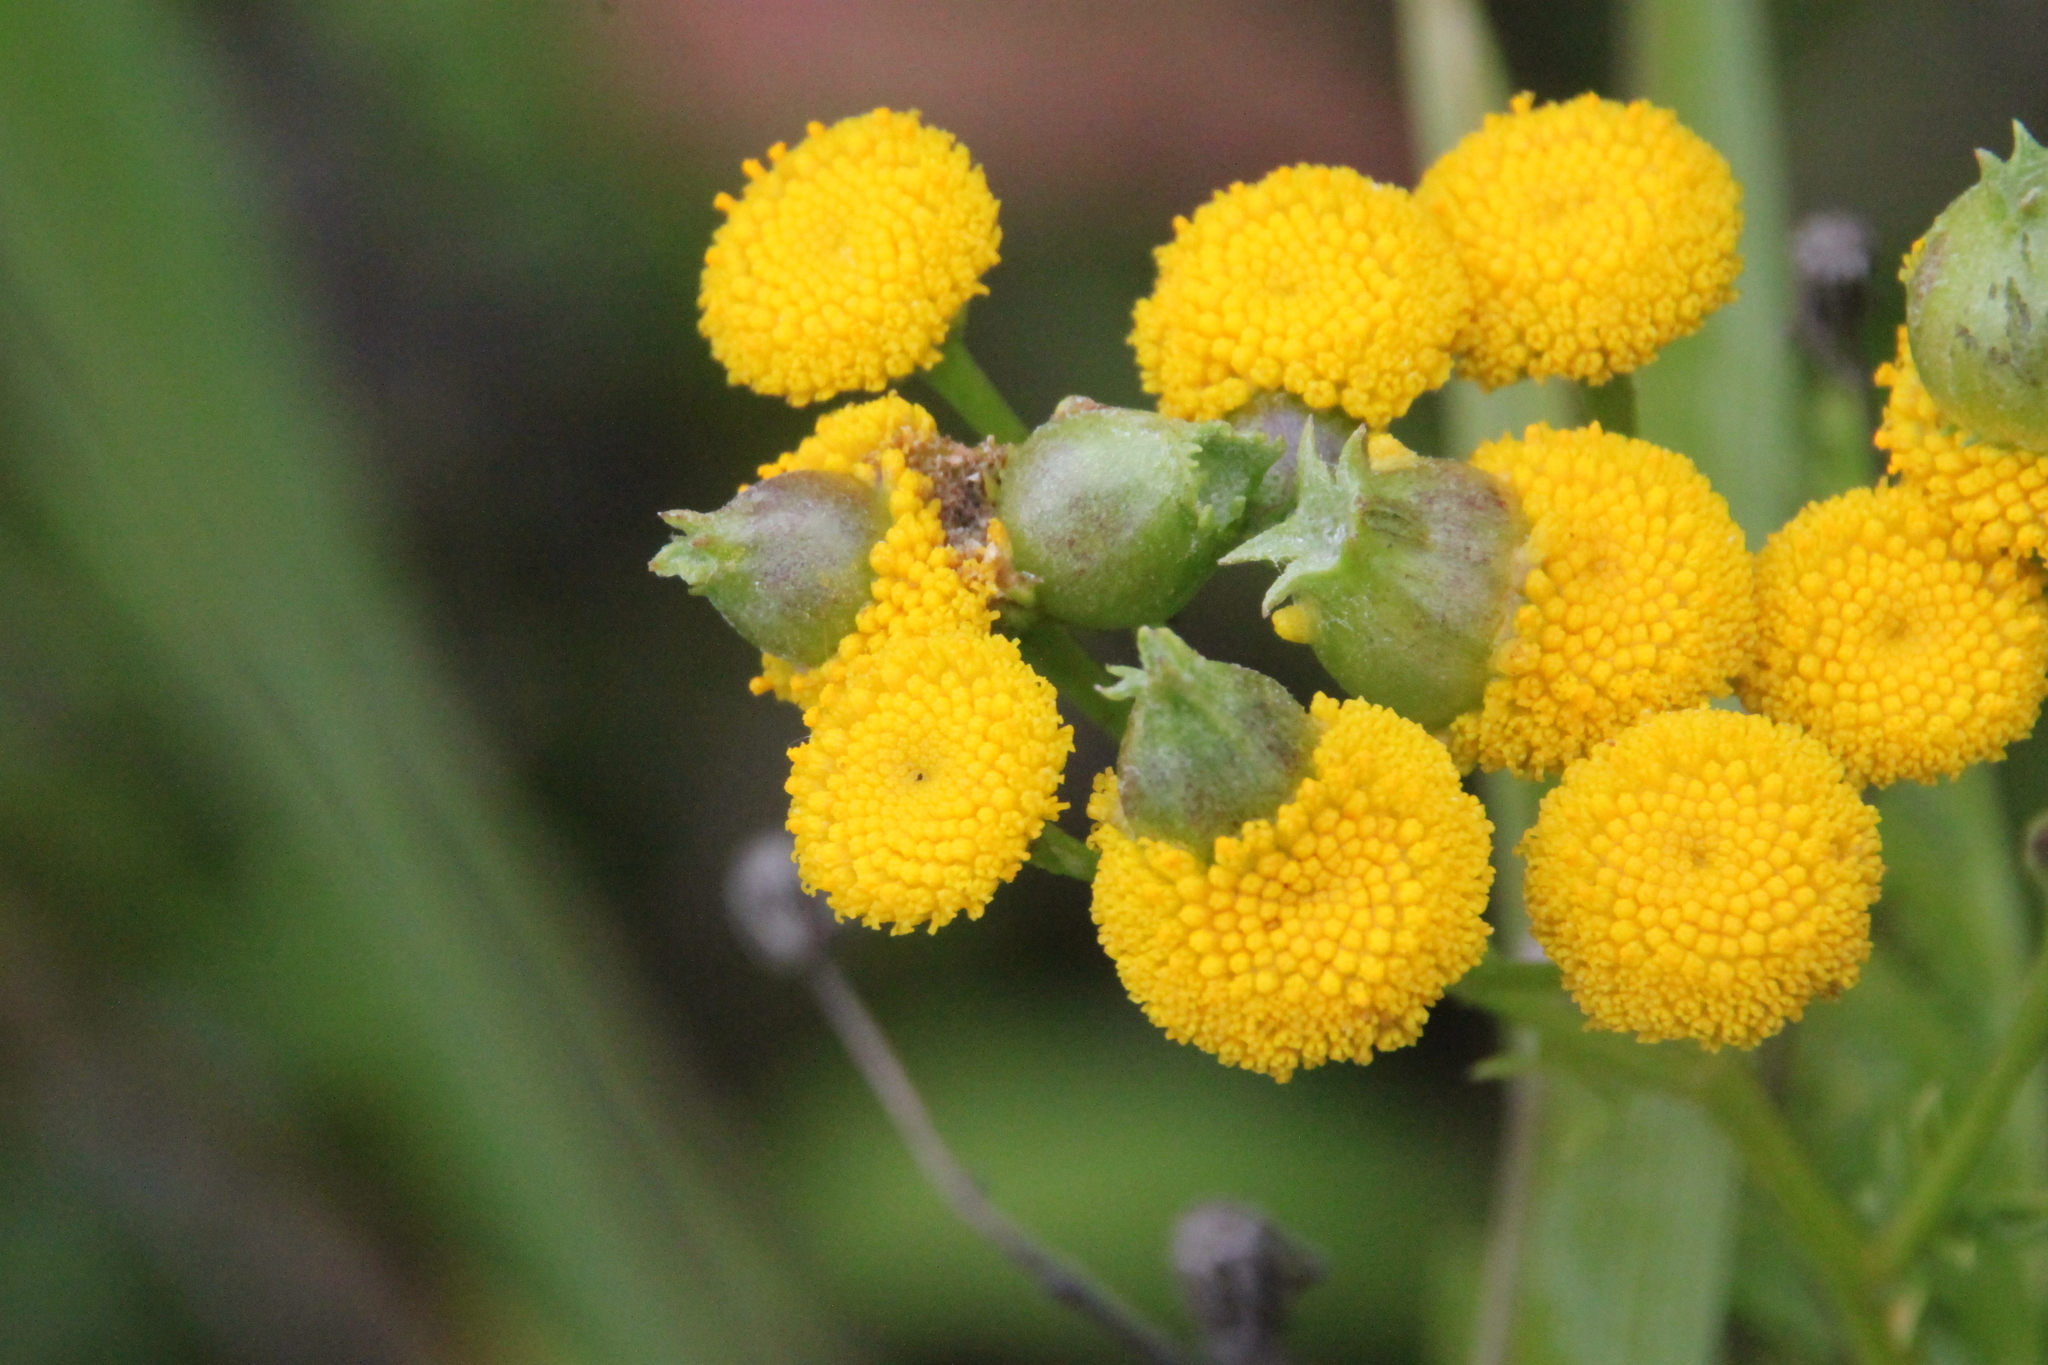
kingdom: Plantae
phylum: Tracheophyta
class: Magnoliopsida
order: Asterales
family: Asteraceae
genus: Tanacetum
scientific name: Tanacetum vulgare
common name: Common tansy
